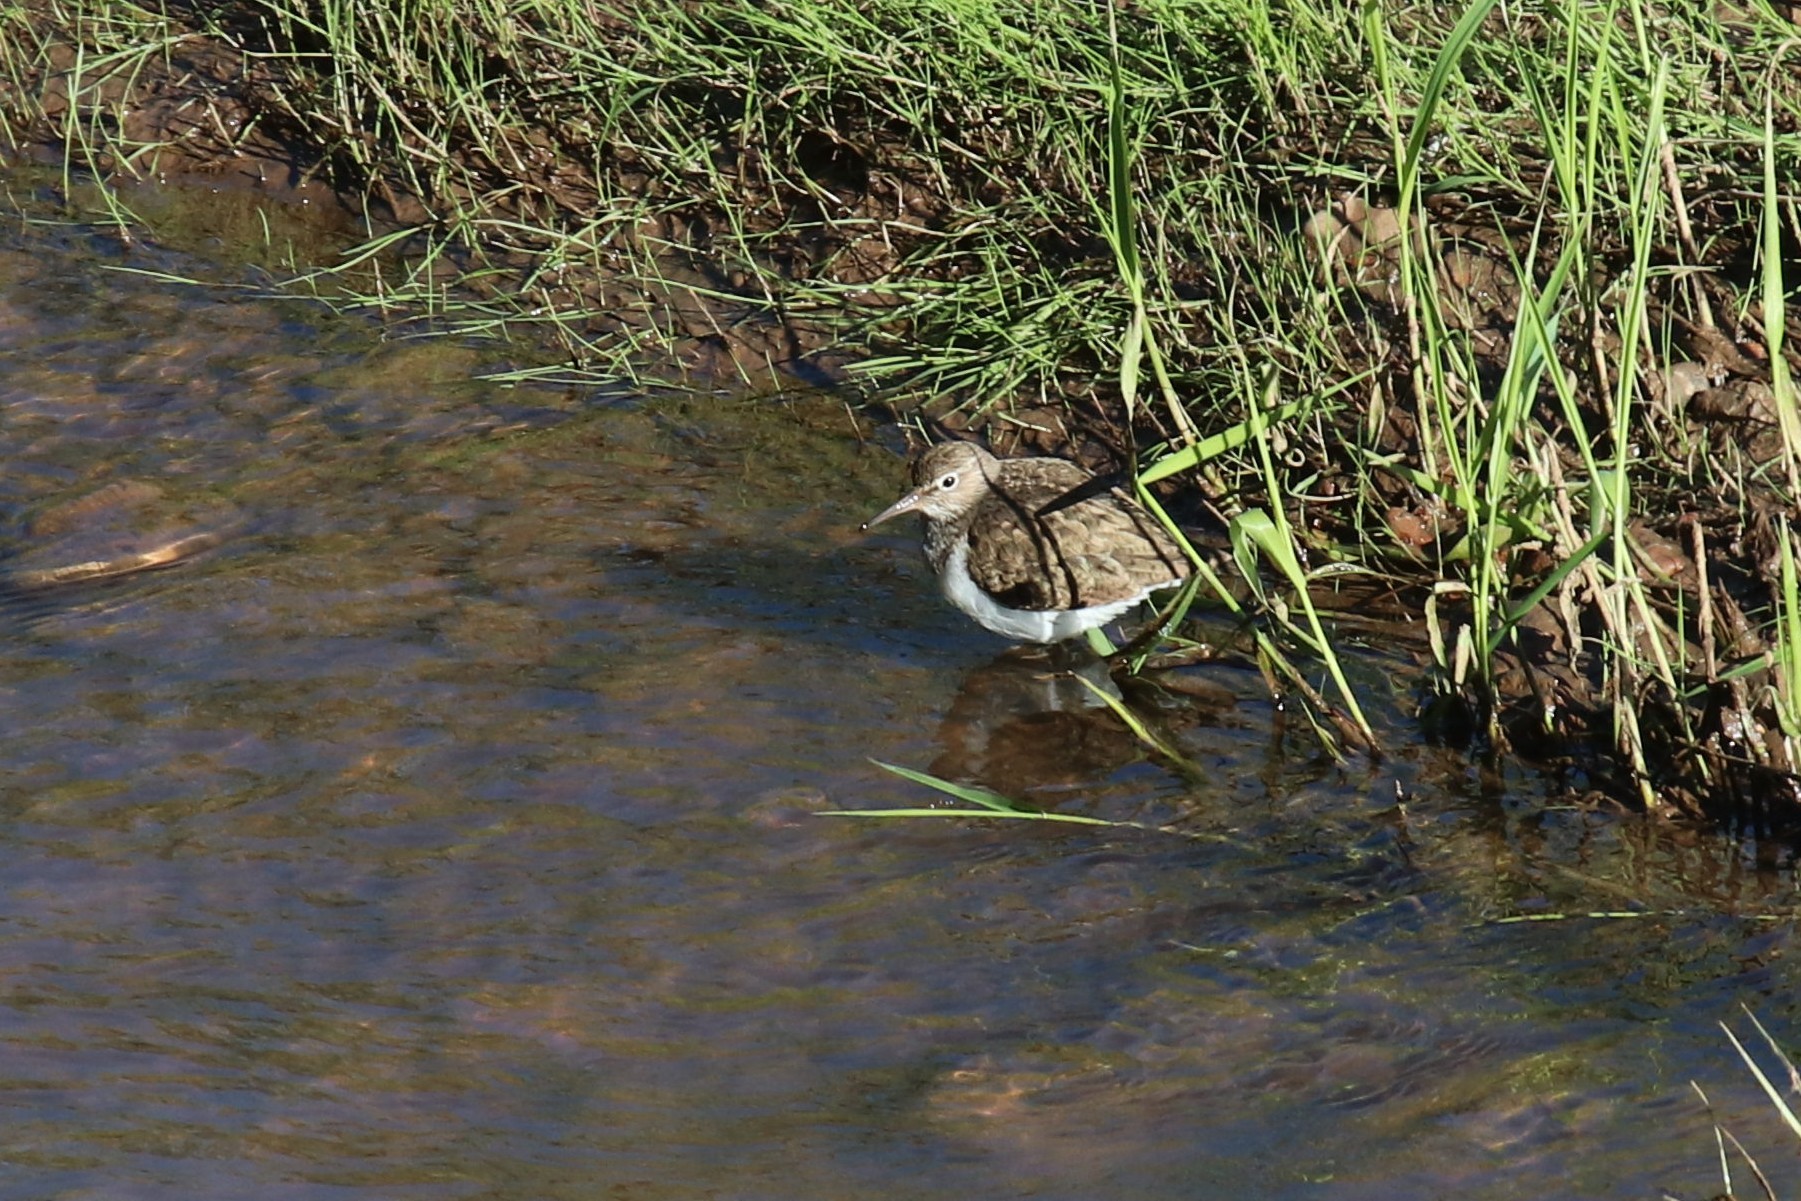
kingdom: Animalia
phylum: Chordata
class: Aves
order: Charadriiformes
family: Scolopacidae
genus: Actitis
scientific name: Actitis hypoleucos
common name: Common sandpiper
